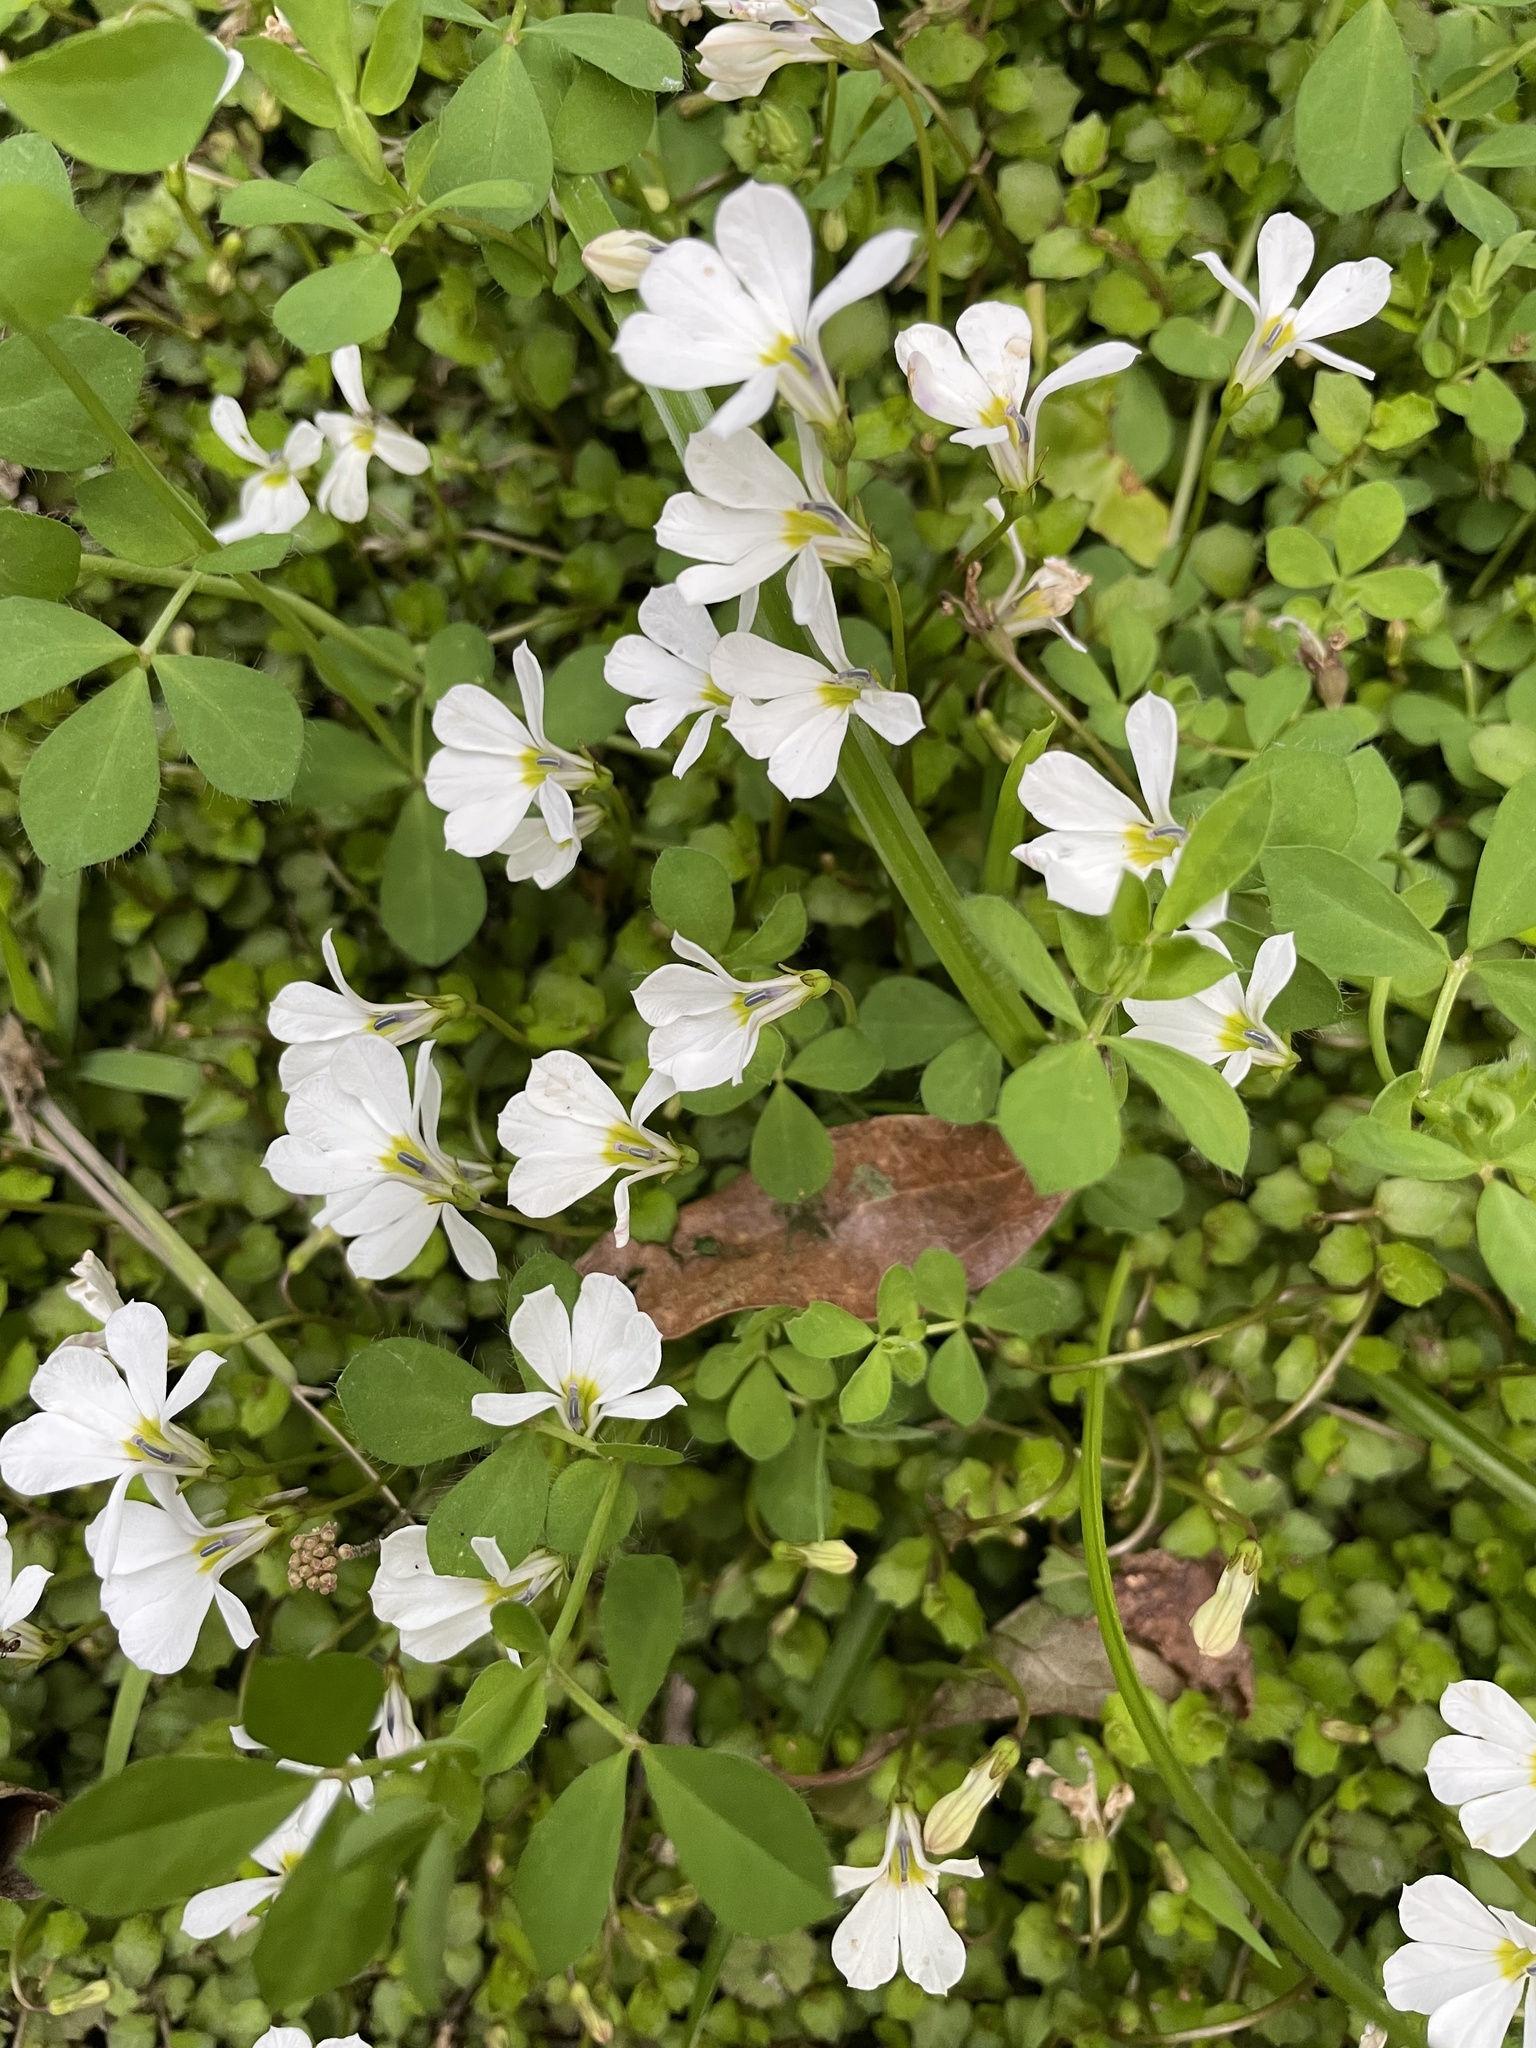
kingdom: Plantae
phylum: Tracheophyta
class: Magnoliopsida
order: Asterales
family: Campanulaceae
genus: Lobelia
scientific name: Lobelia angulata
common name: Lawn lobelia
